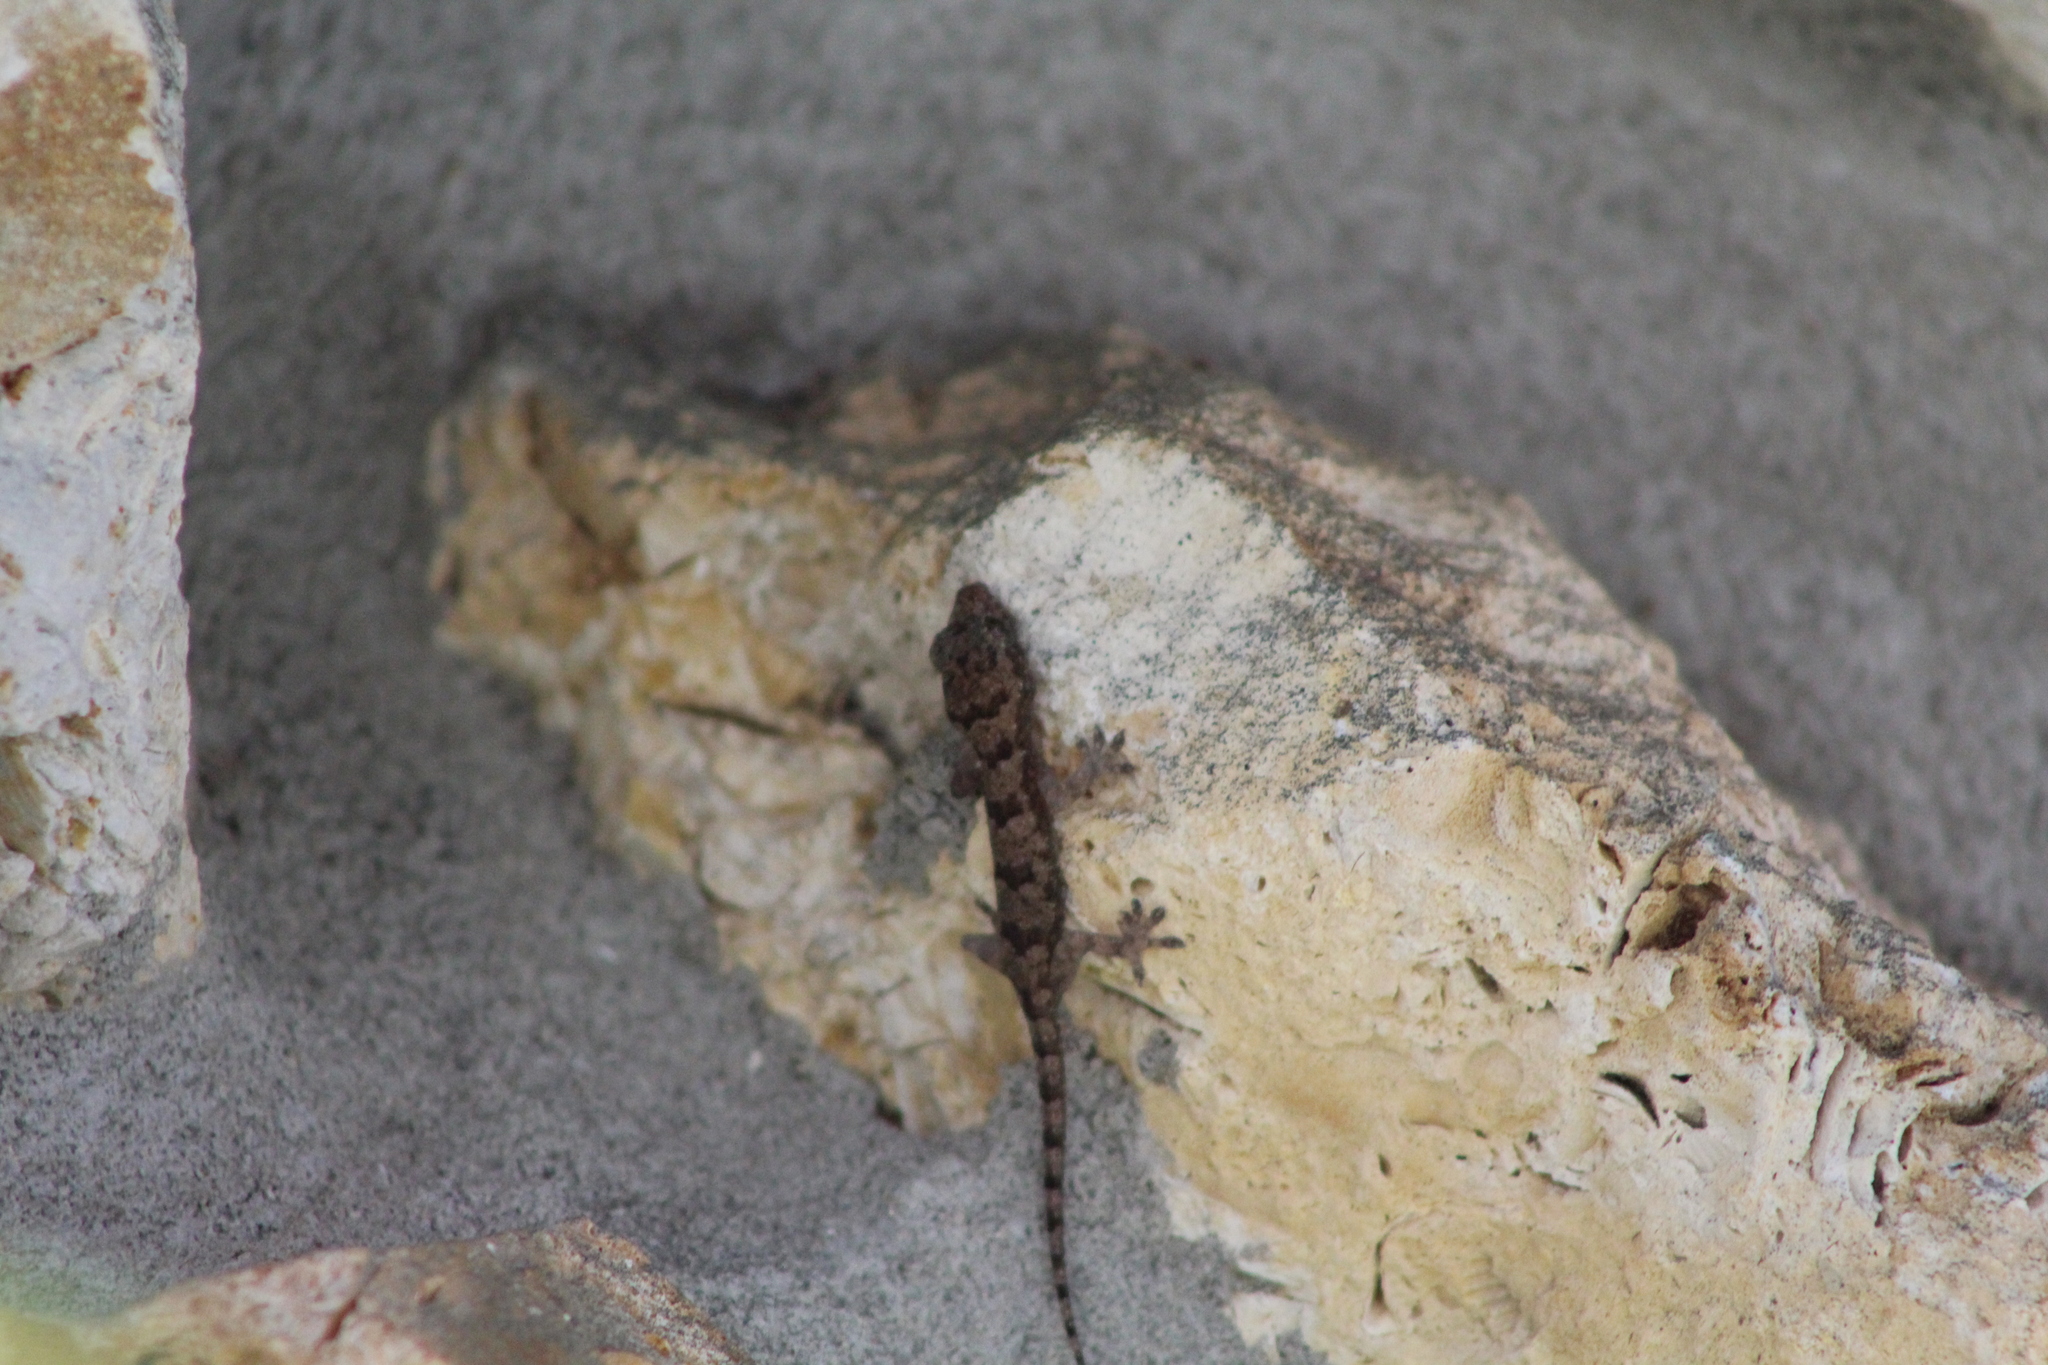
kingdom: Animalia
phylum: Chordata
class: Squamata
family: Gekkonidae
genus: Hemidactylus
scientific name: Hemidactylus mabouia
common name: House gecko
